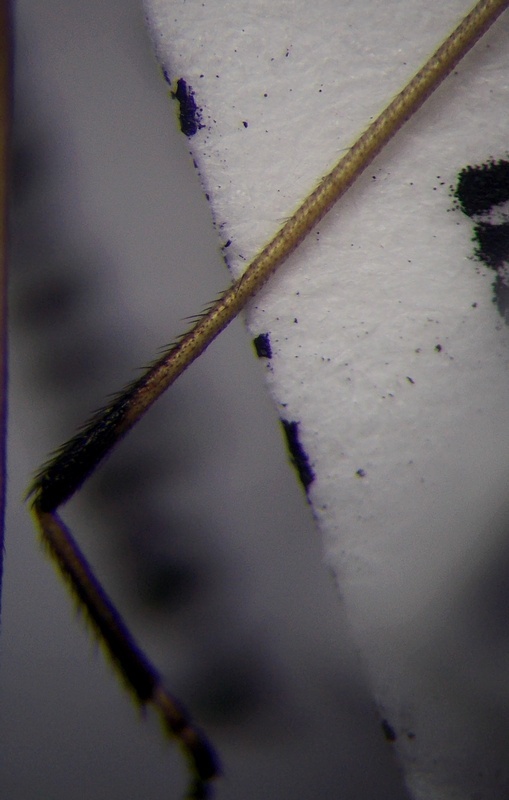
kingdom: Animalia
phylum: Arthropoda
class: Insecta
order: Hemiptera
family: Rhopalidae
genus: Chorosoma
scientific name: Chorosoma gracile
